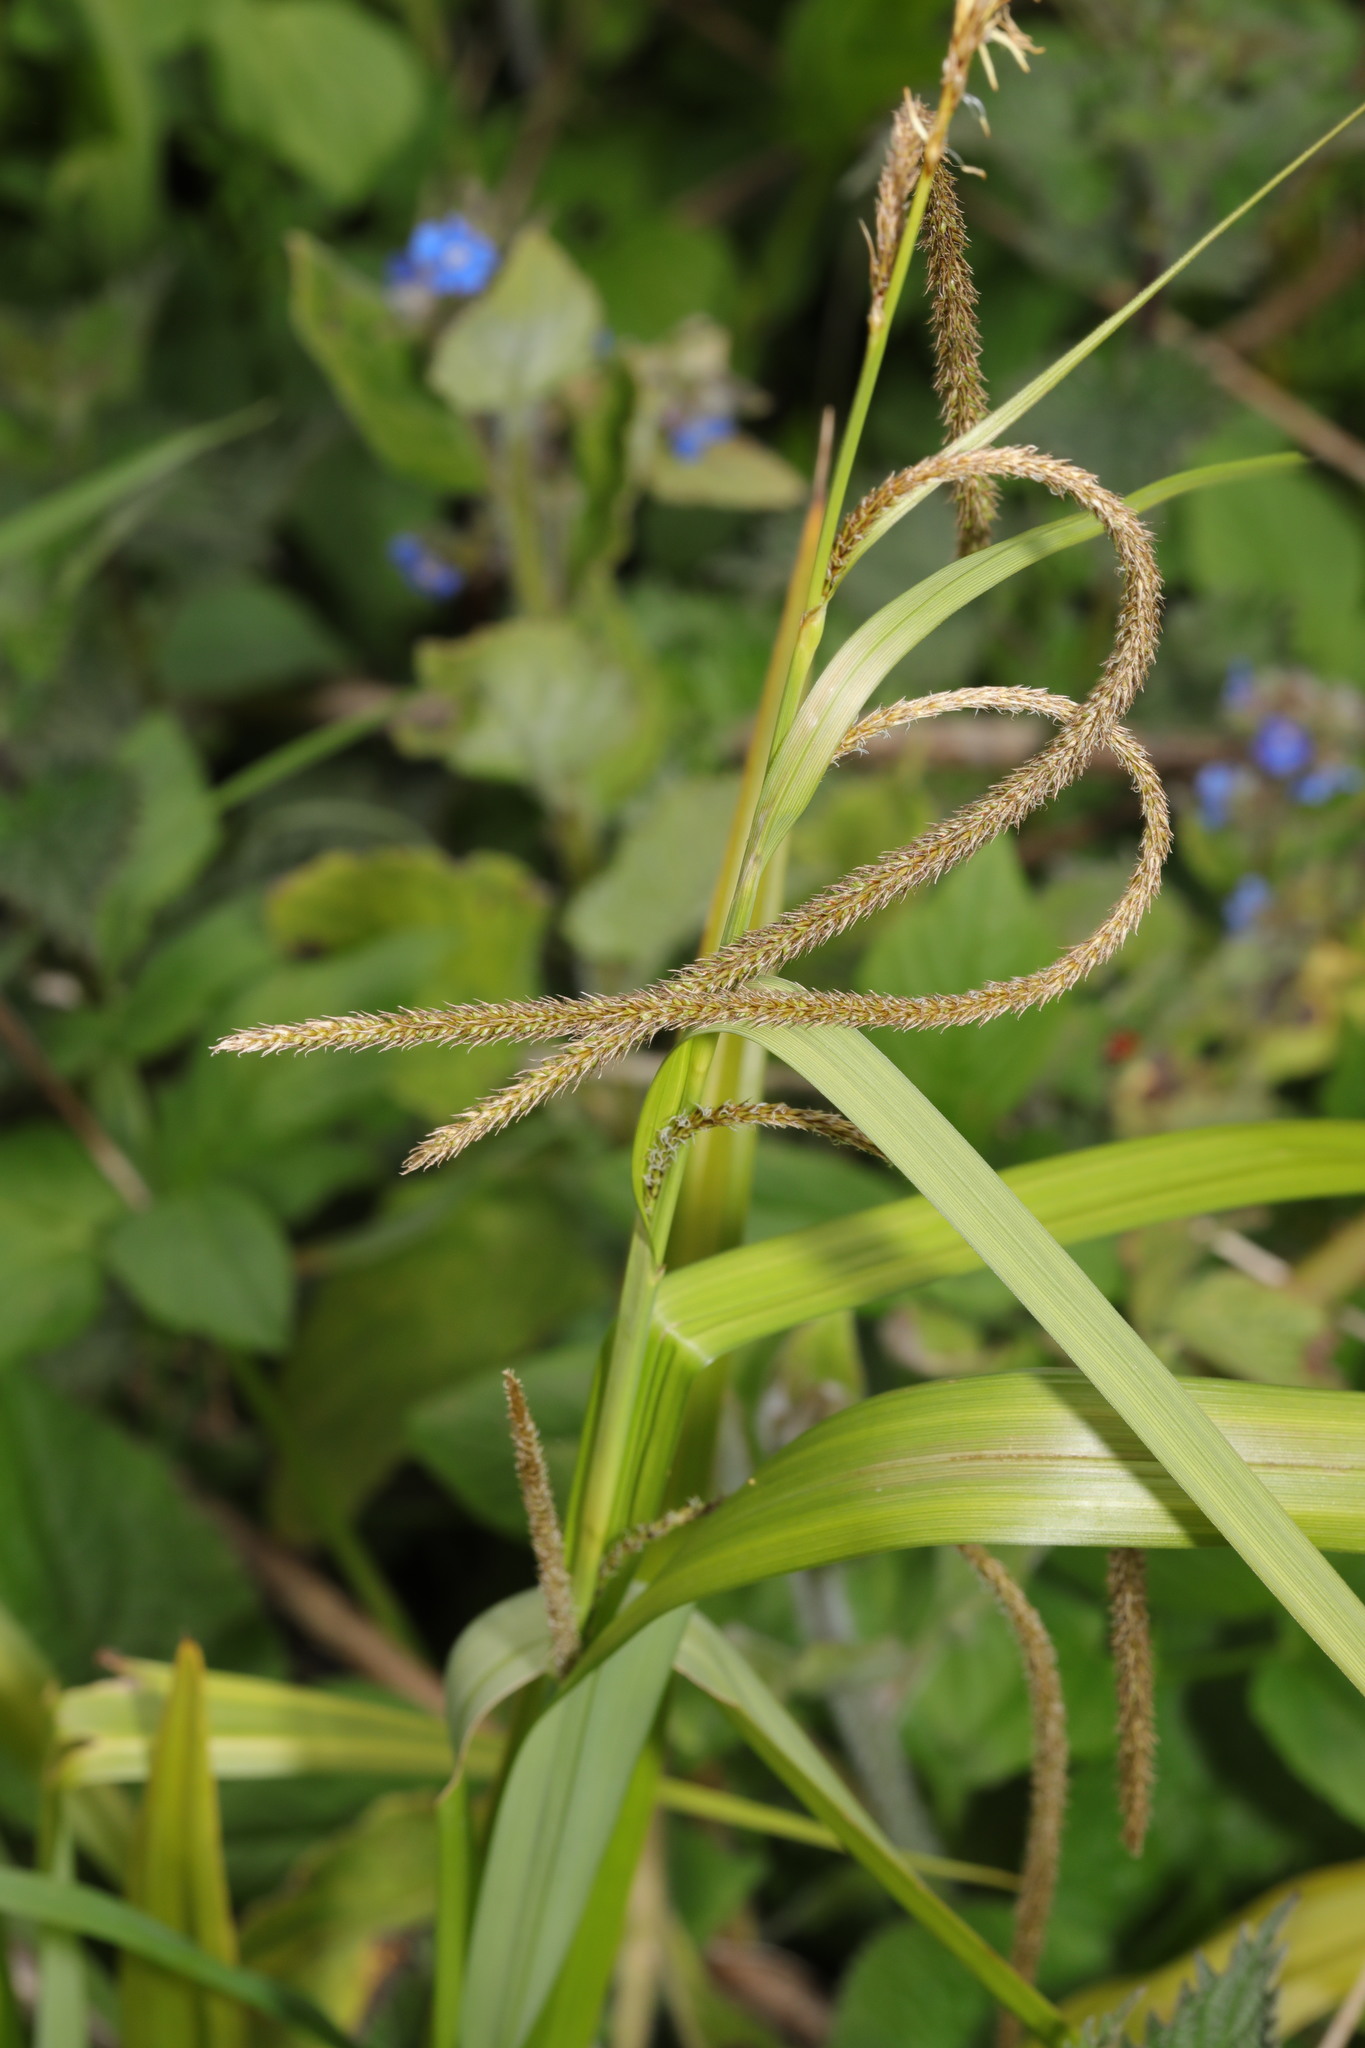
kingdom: Plantae
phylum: Tracheophyta
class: Liliopsida
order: Poales
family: Cyperaceae
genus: Carex
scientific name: Carex pendula
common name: Pendulous sedge
